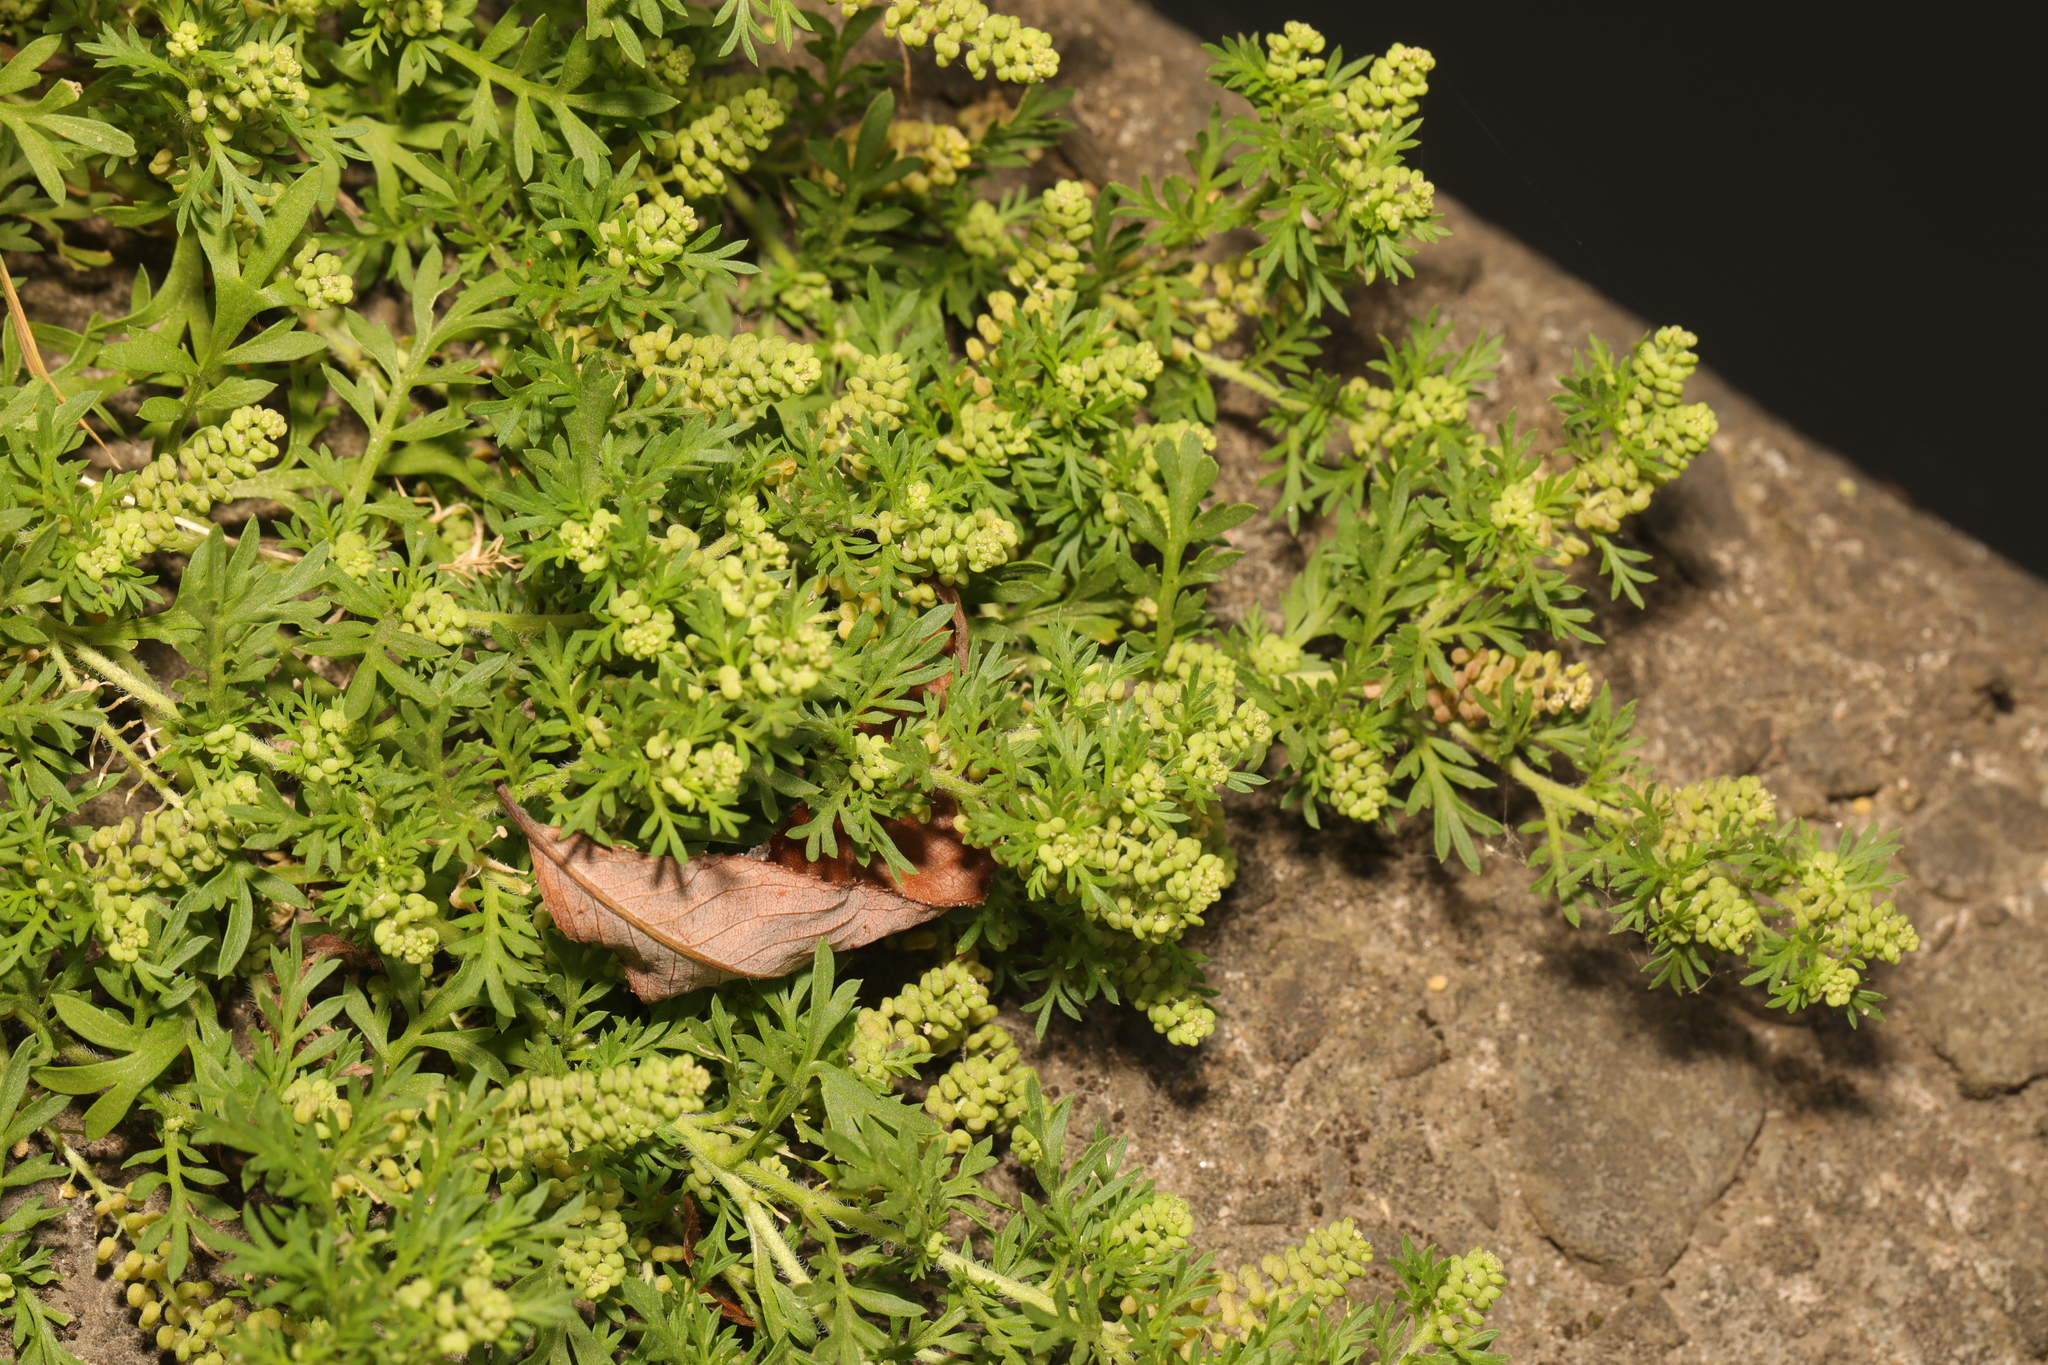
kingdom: Plantae
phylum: Tracheophyta
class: Magnoliopsida
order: Brassicales
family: Brassicaceae
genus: Lepidium
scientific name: Lepidium didymum
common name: Lesser swinecress
